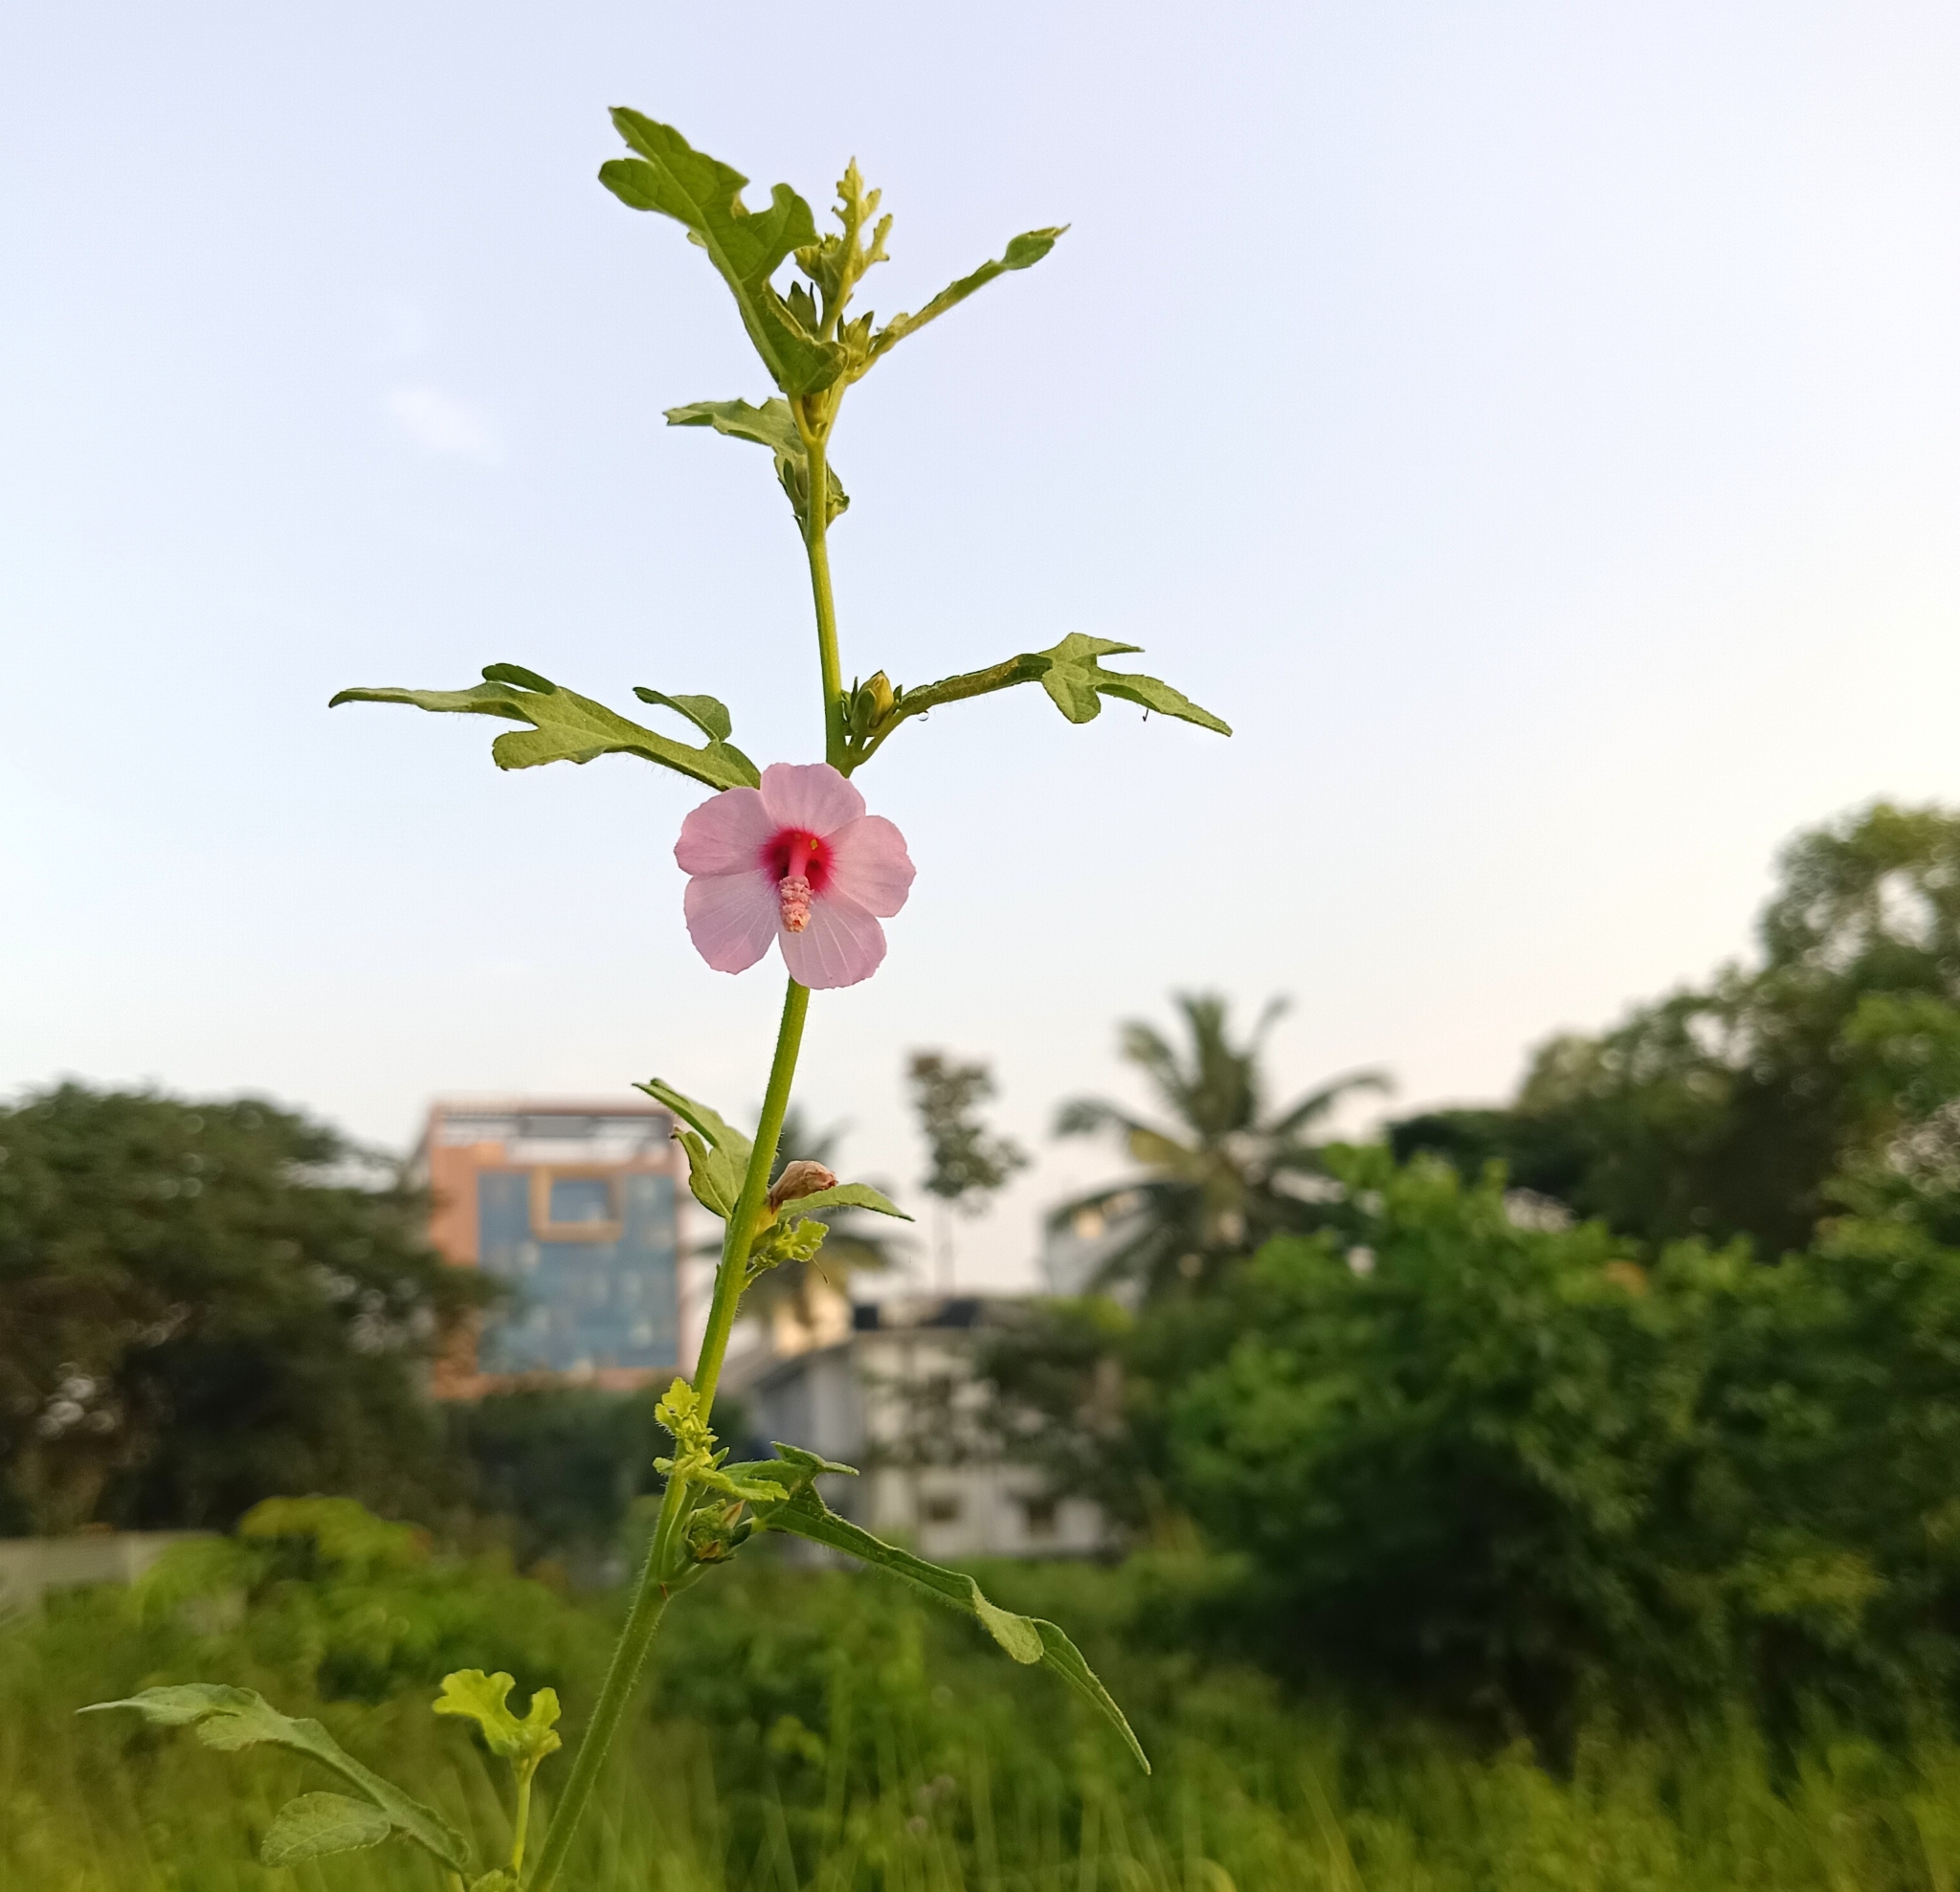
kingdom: Plantae
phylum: Tracheophyta
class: Magnoliopsida
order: Malvales
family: Malvaceae
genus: Urena
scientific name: Urena procumbens
